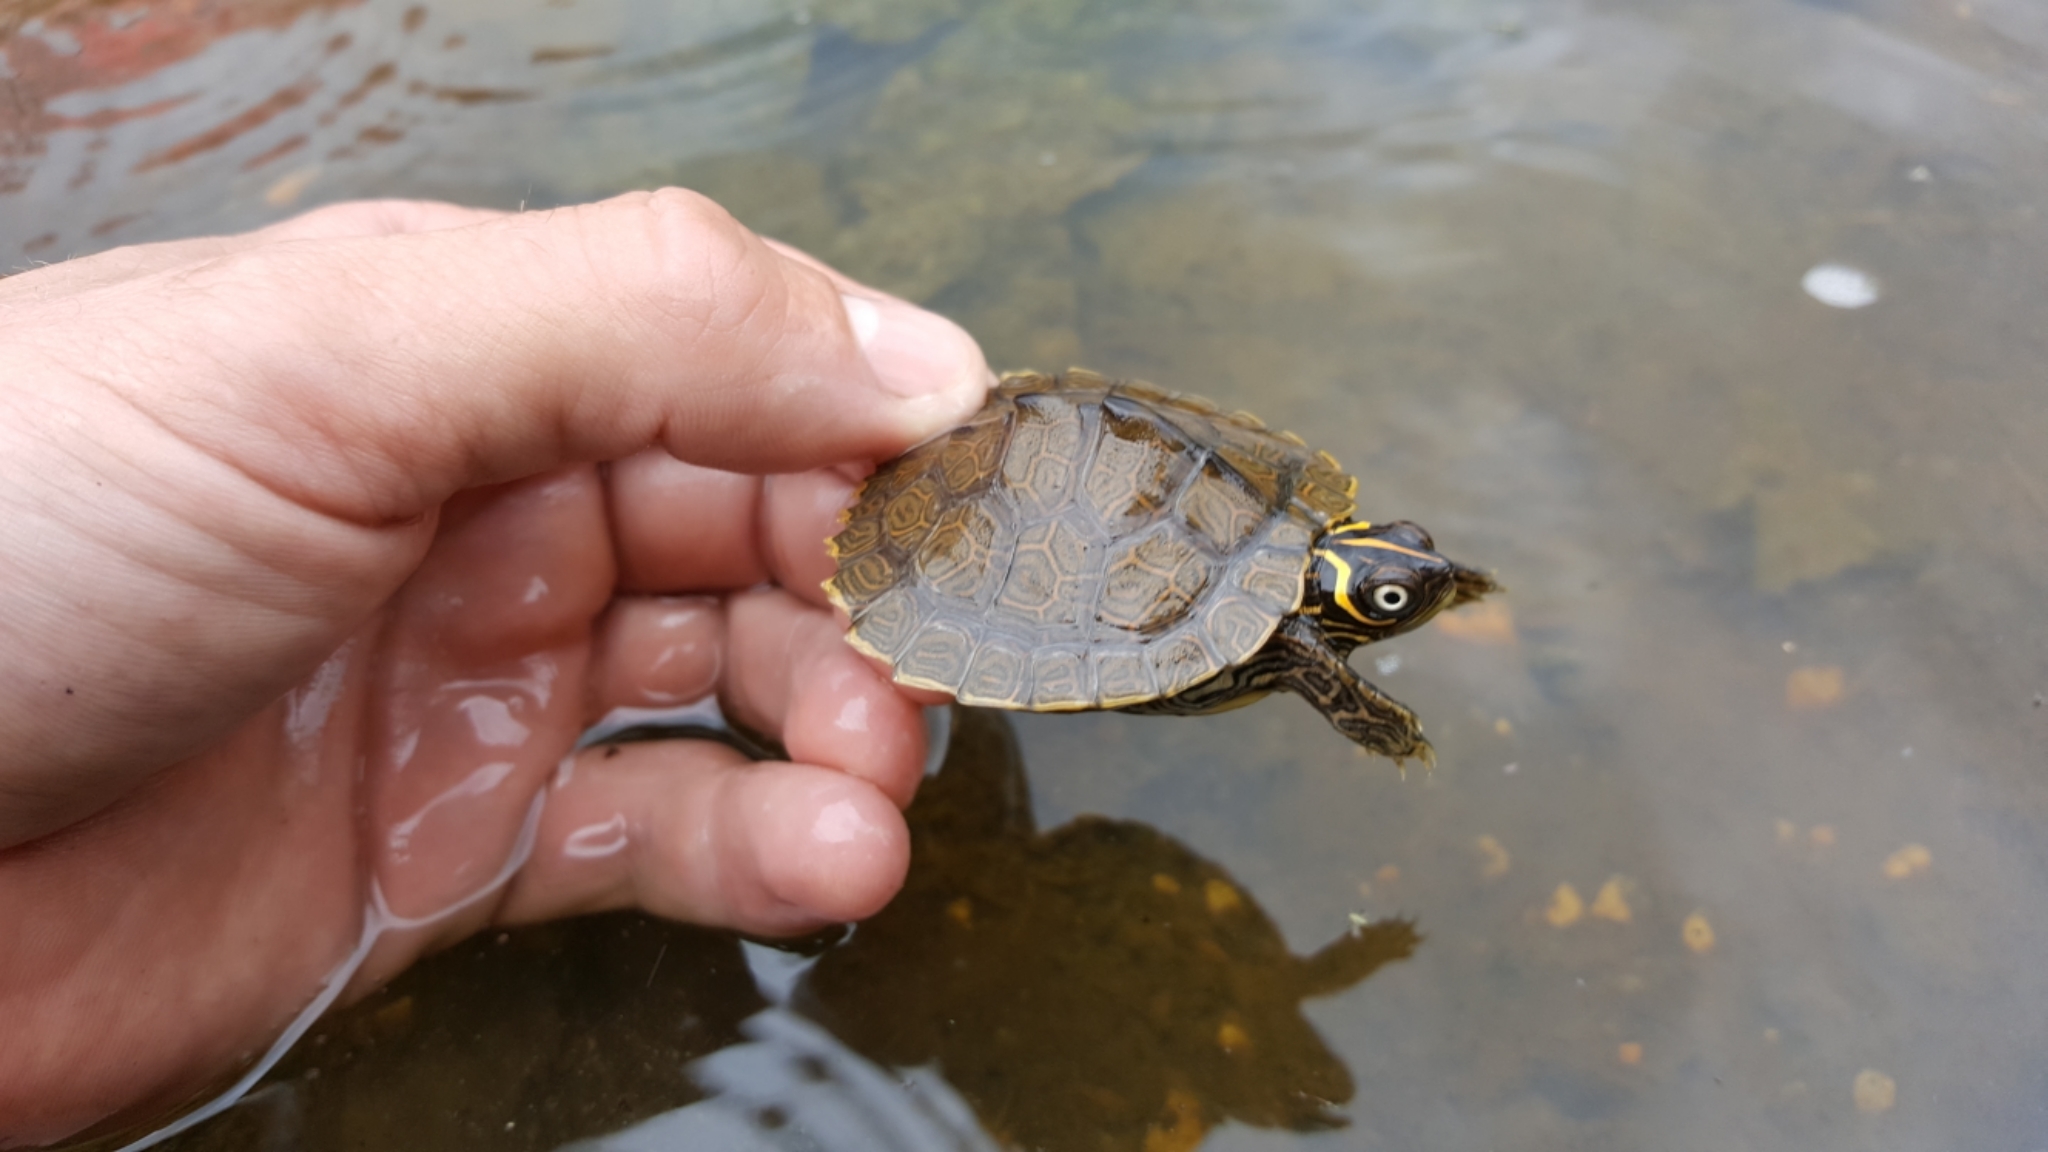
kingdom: Animalia
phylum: Chordata
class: Testudines
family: Emydidae
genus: Graptemys
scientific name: Graptemys pseudogeographica
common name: False map turtle
